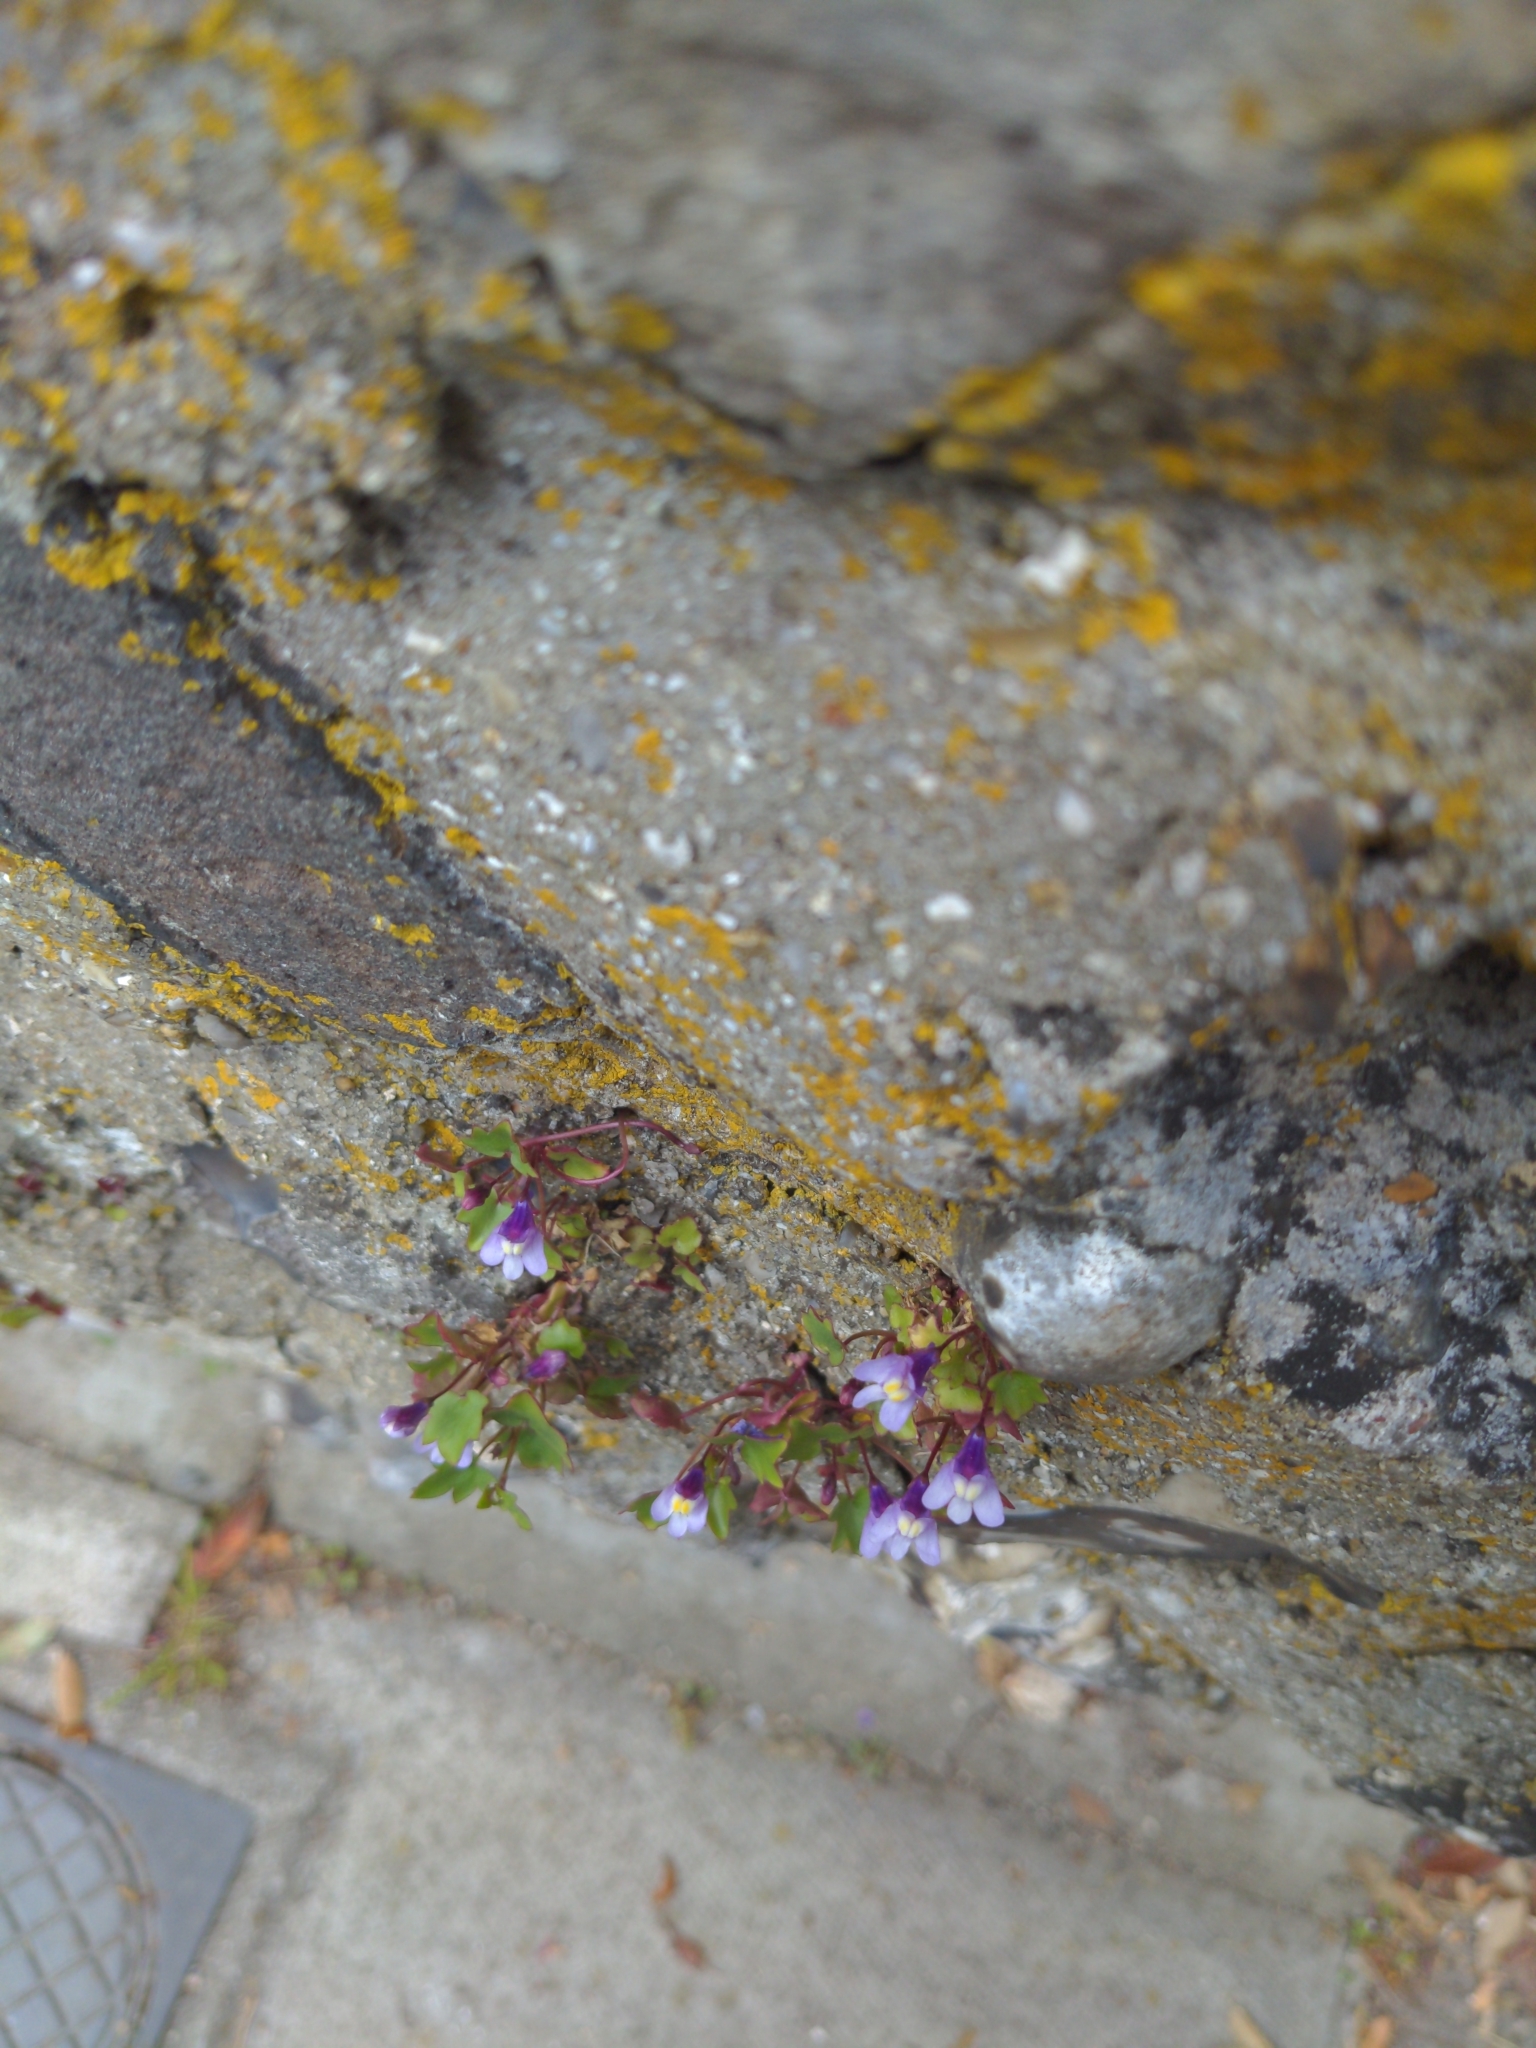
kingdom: Plantae
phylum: Tracheophyta
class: Magnoliopsida
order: Lamiales
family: Plantaginaceae
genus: Cymbalaria
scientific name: Cymbalaria muralis
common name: Ivy-leaved toadflax
